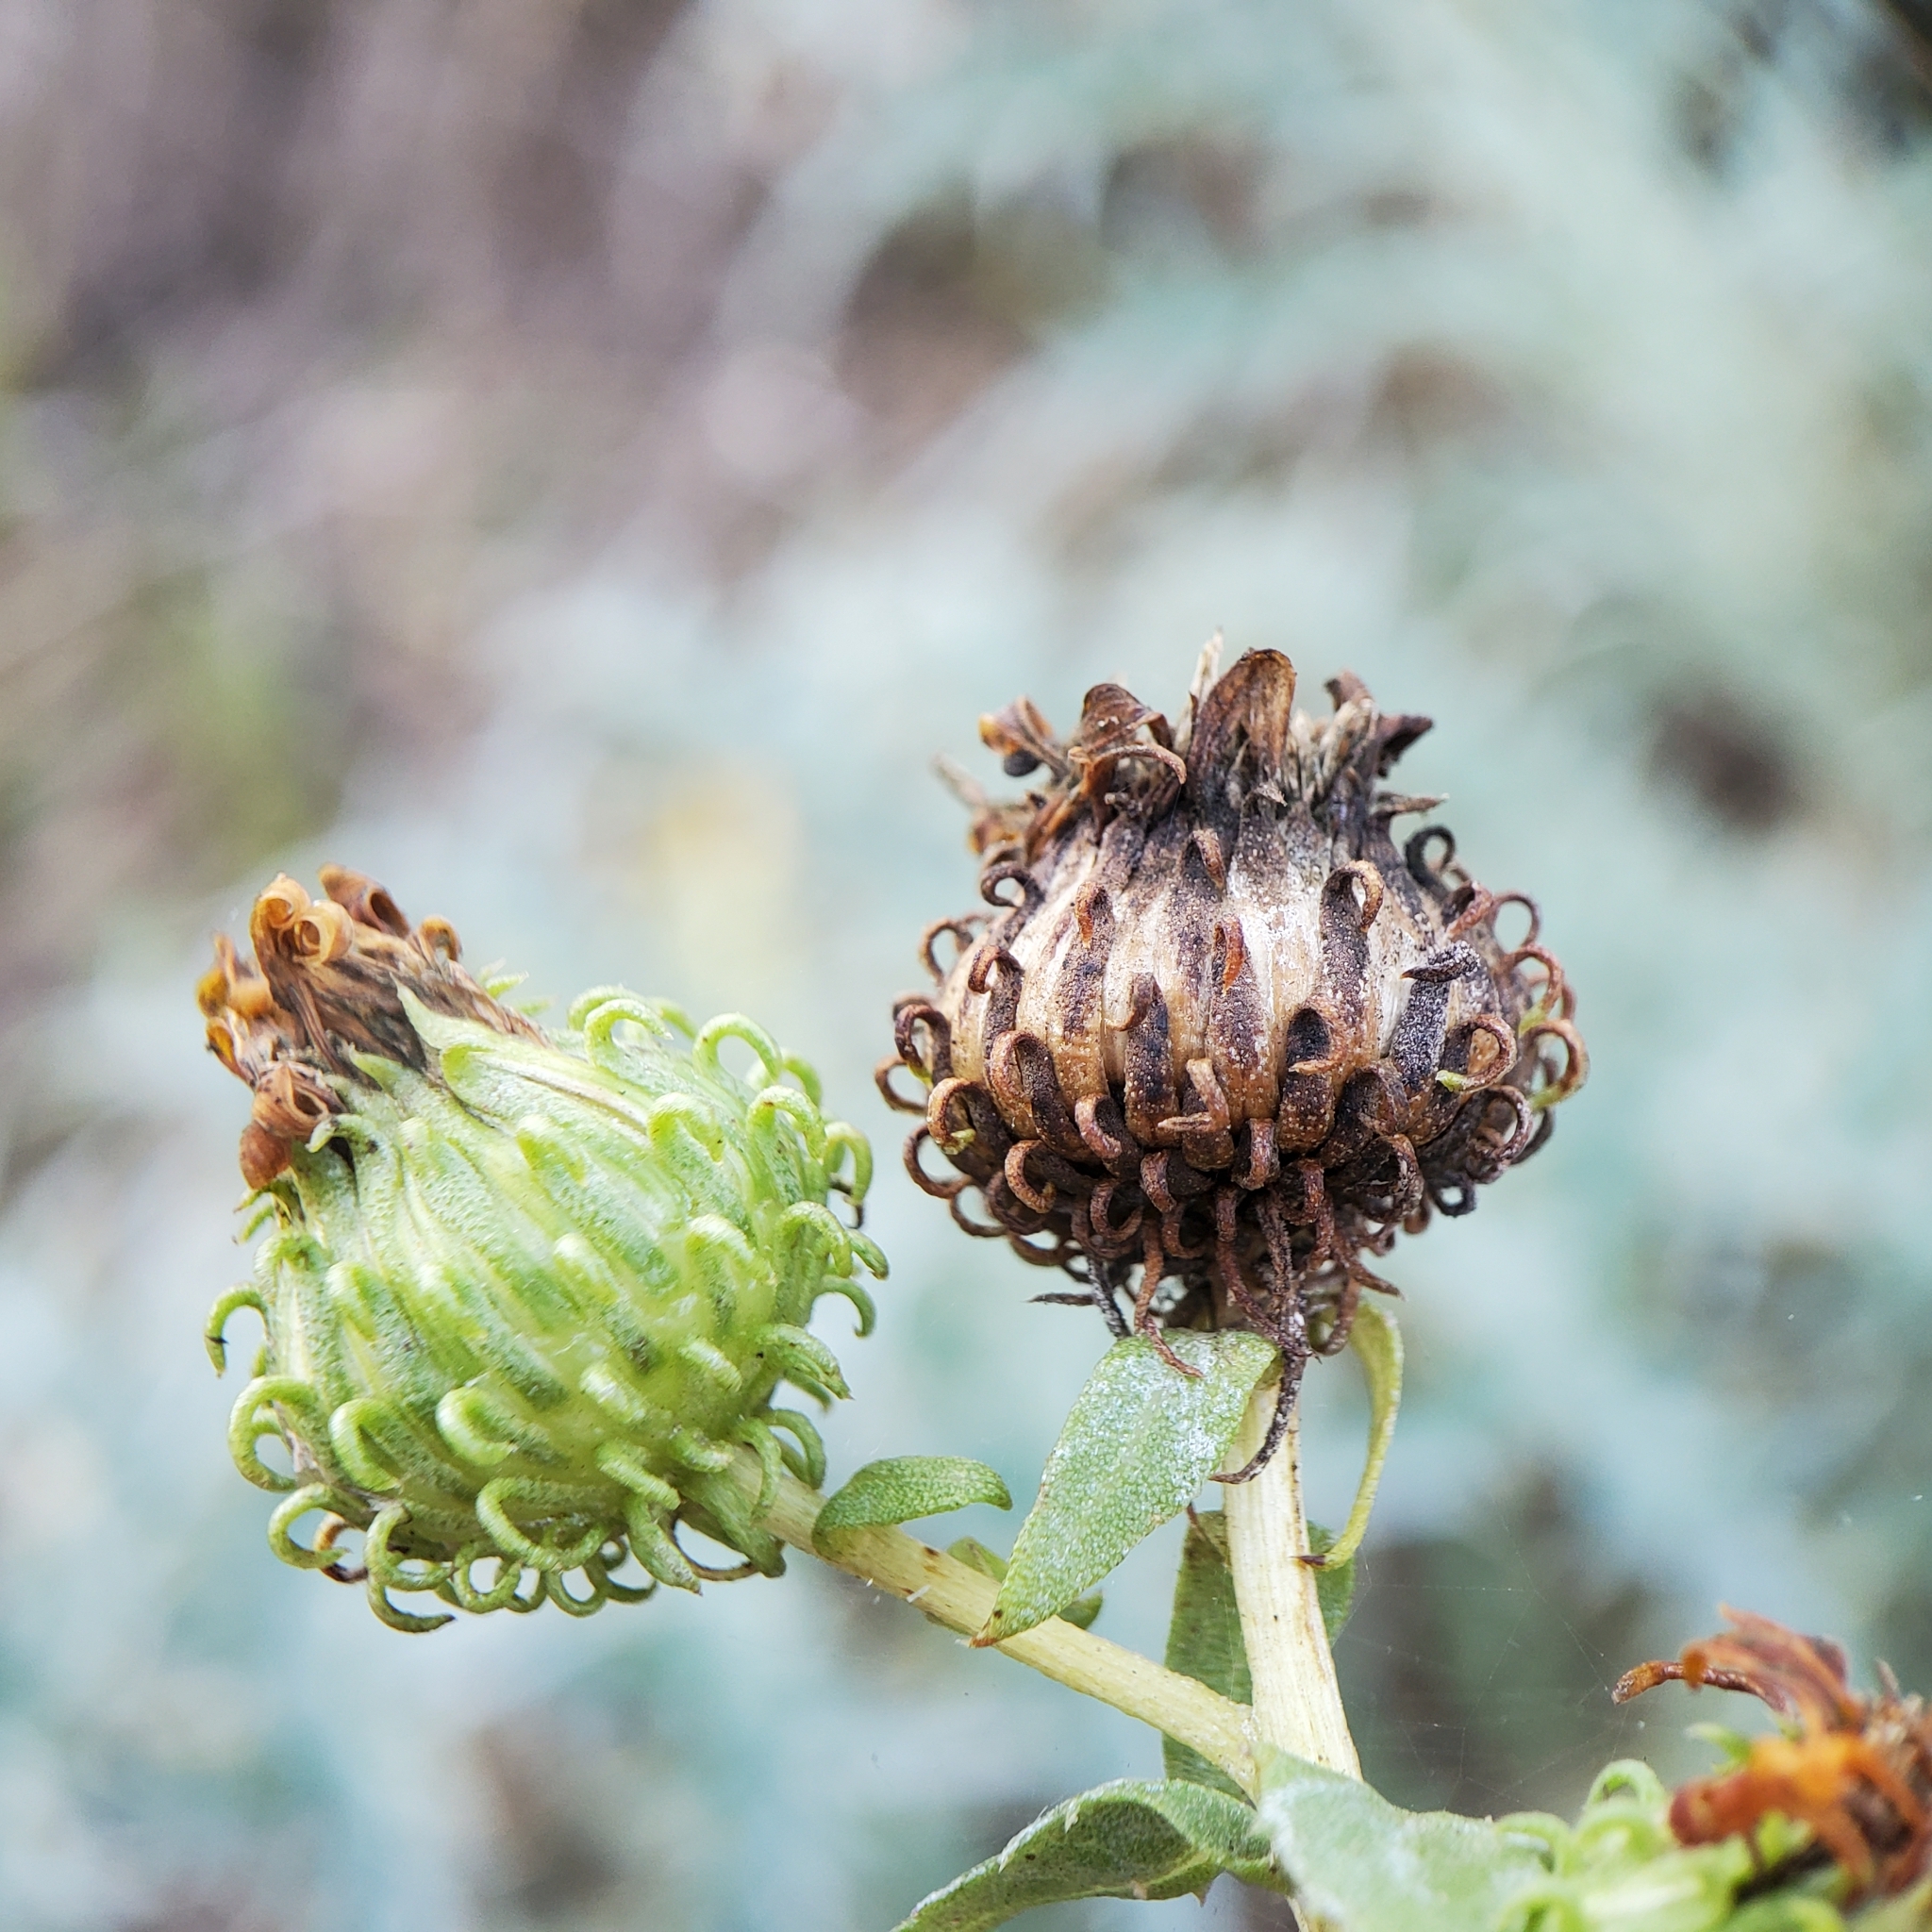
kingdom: Plantae
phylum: Tracheophyta
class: Magnoliopsida
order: Asterales
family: Asteraceae
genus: Grindelia
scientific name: Grindelia hirsutula
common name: Hairy gumweed
